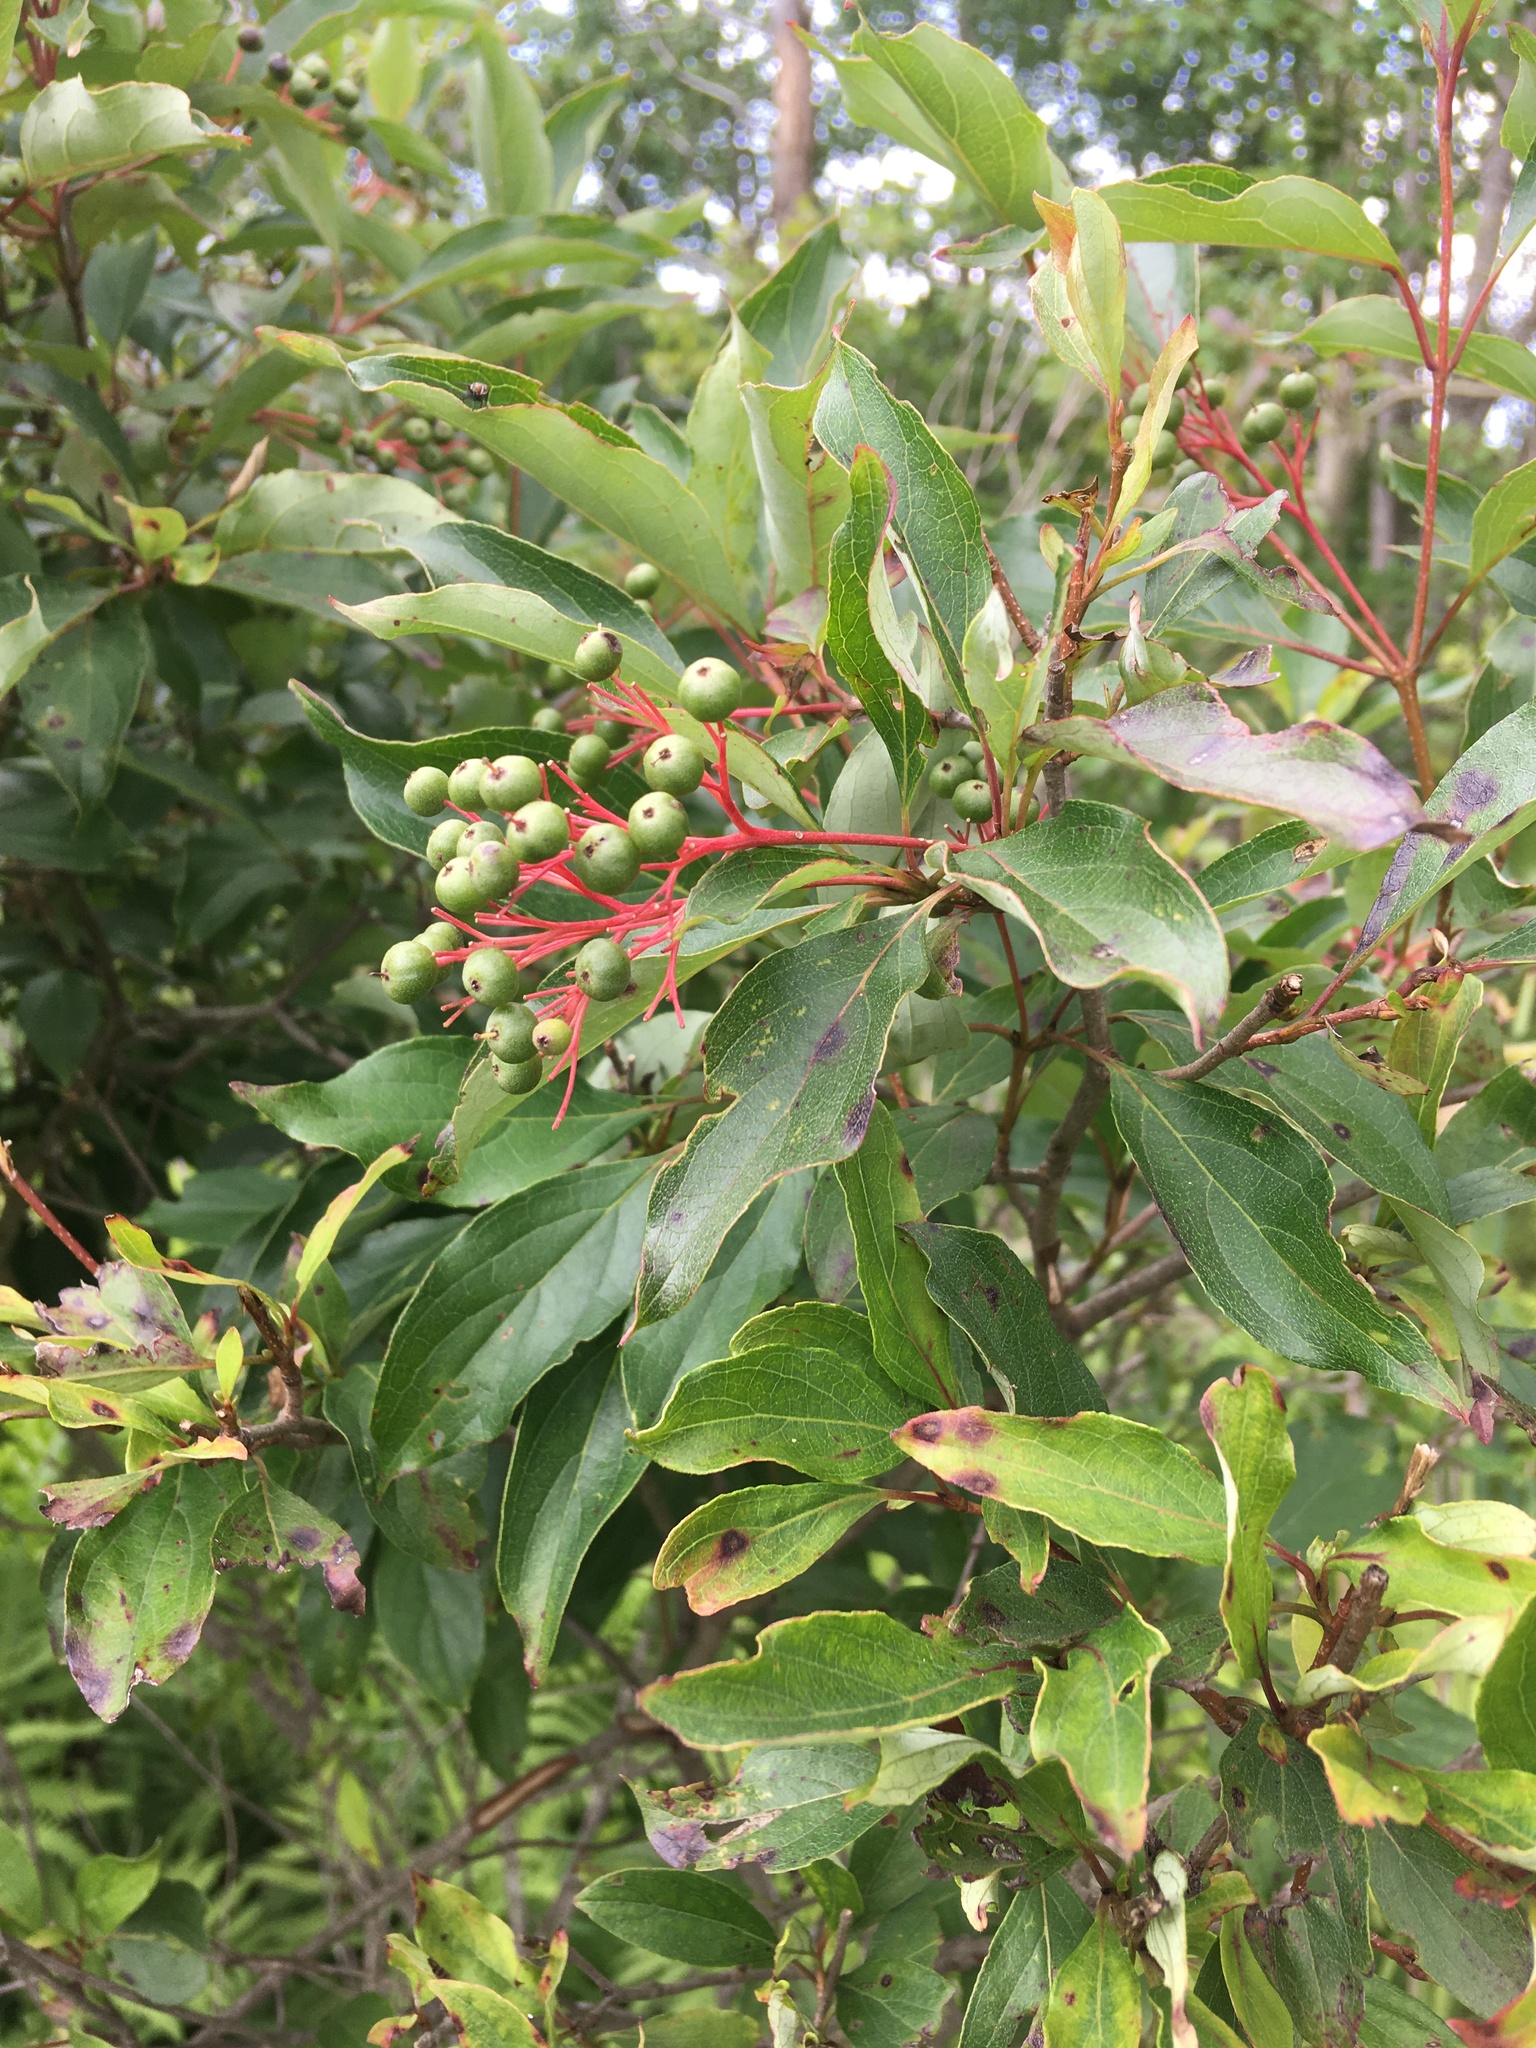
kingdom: Plantae
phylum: Tracheophyta
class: Magnoliopsida
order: Cornales
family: Cornaceae
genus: Cornus
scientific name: Cornus racemosa
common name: Panicled dogwood
